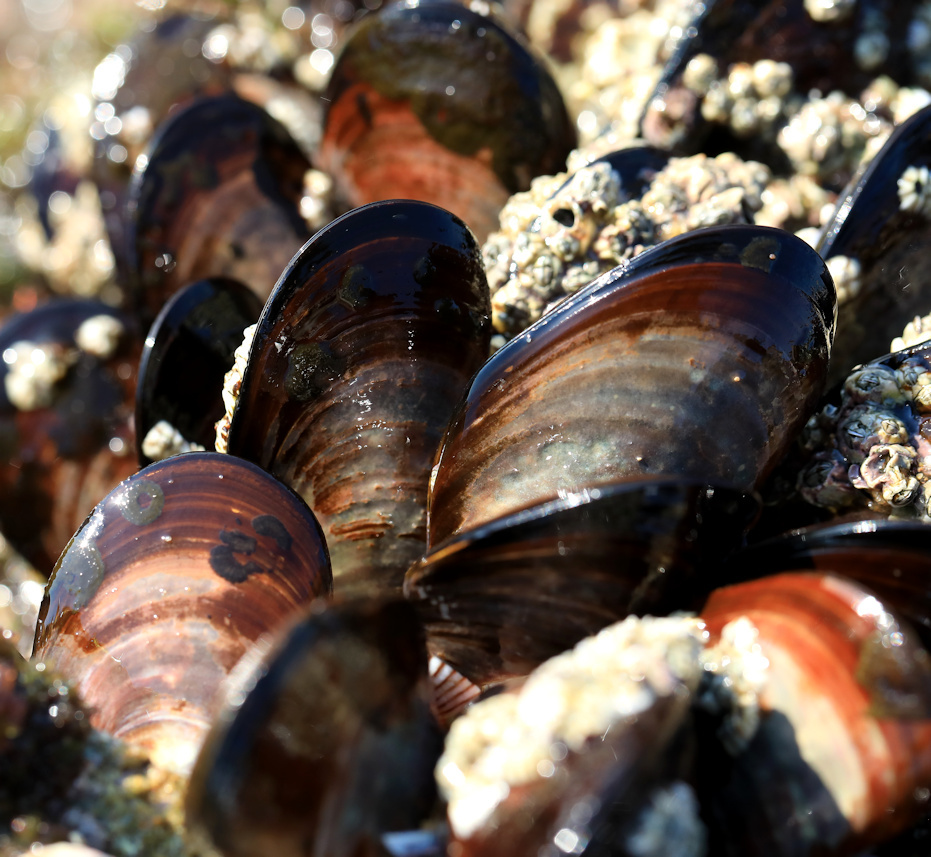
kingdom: Animalia
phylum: Mollusca
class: Bivalvia
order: Mytilida
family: Mytilidae
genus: Perna
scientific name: Perna perna
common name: Mexilhao mussel
